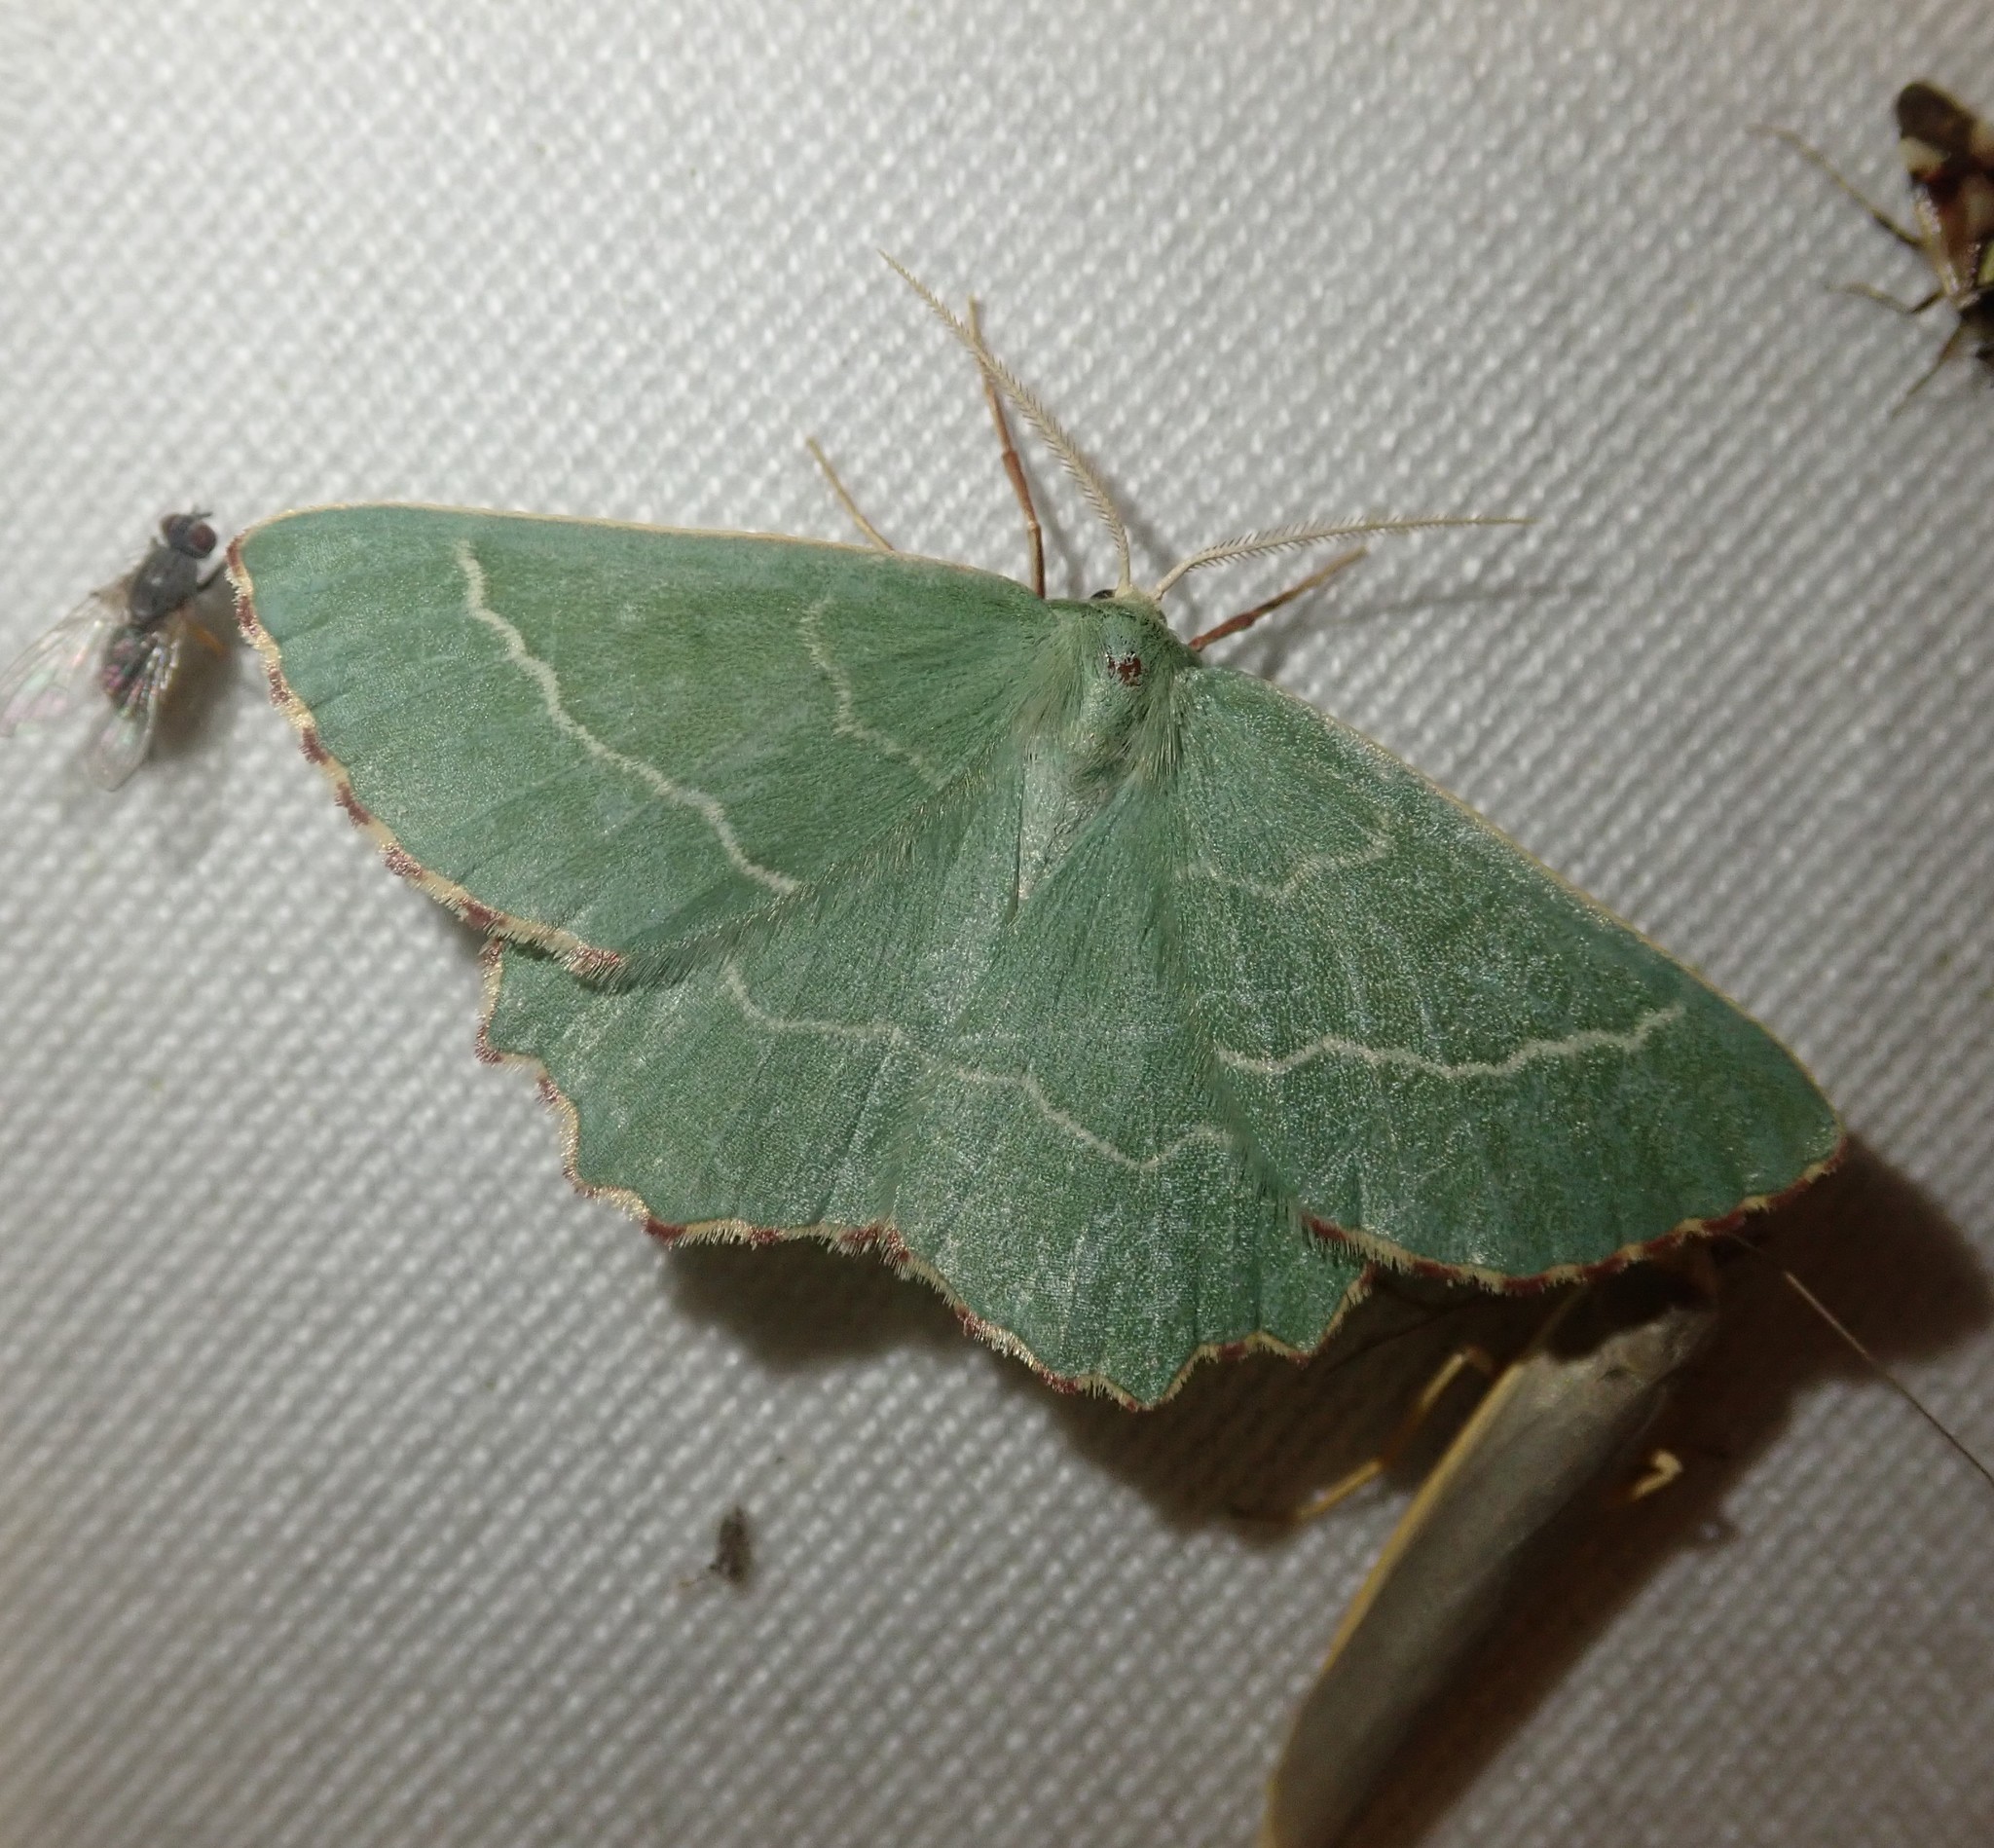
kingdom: Animalia
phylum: Arthropoda
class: Insecta
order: Lepidoptera
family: Geometridae
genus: Thalera
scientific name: Thalera fimbrialis
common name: Sussex emerald
